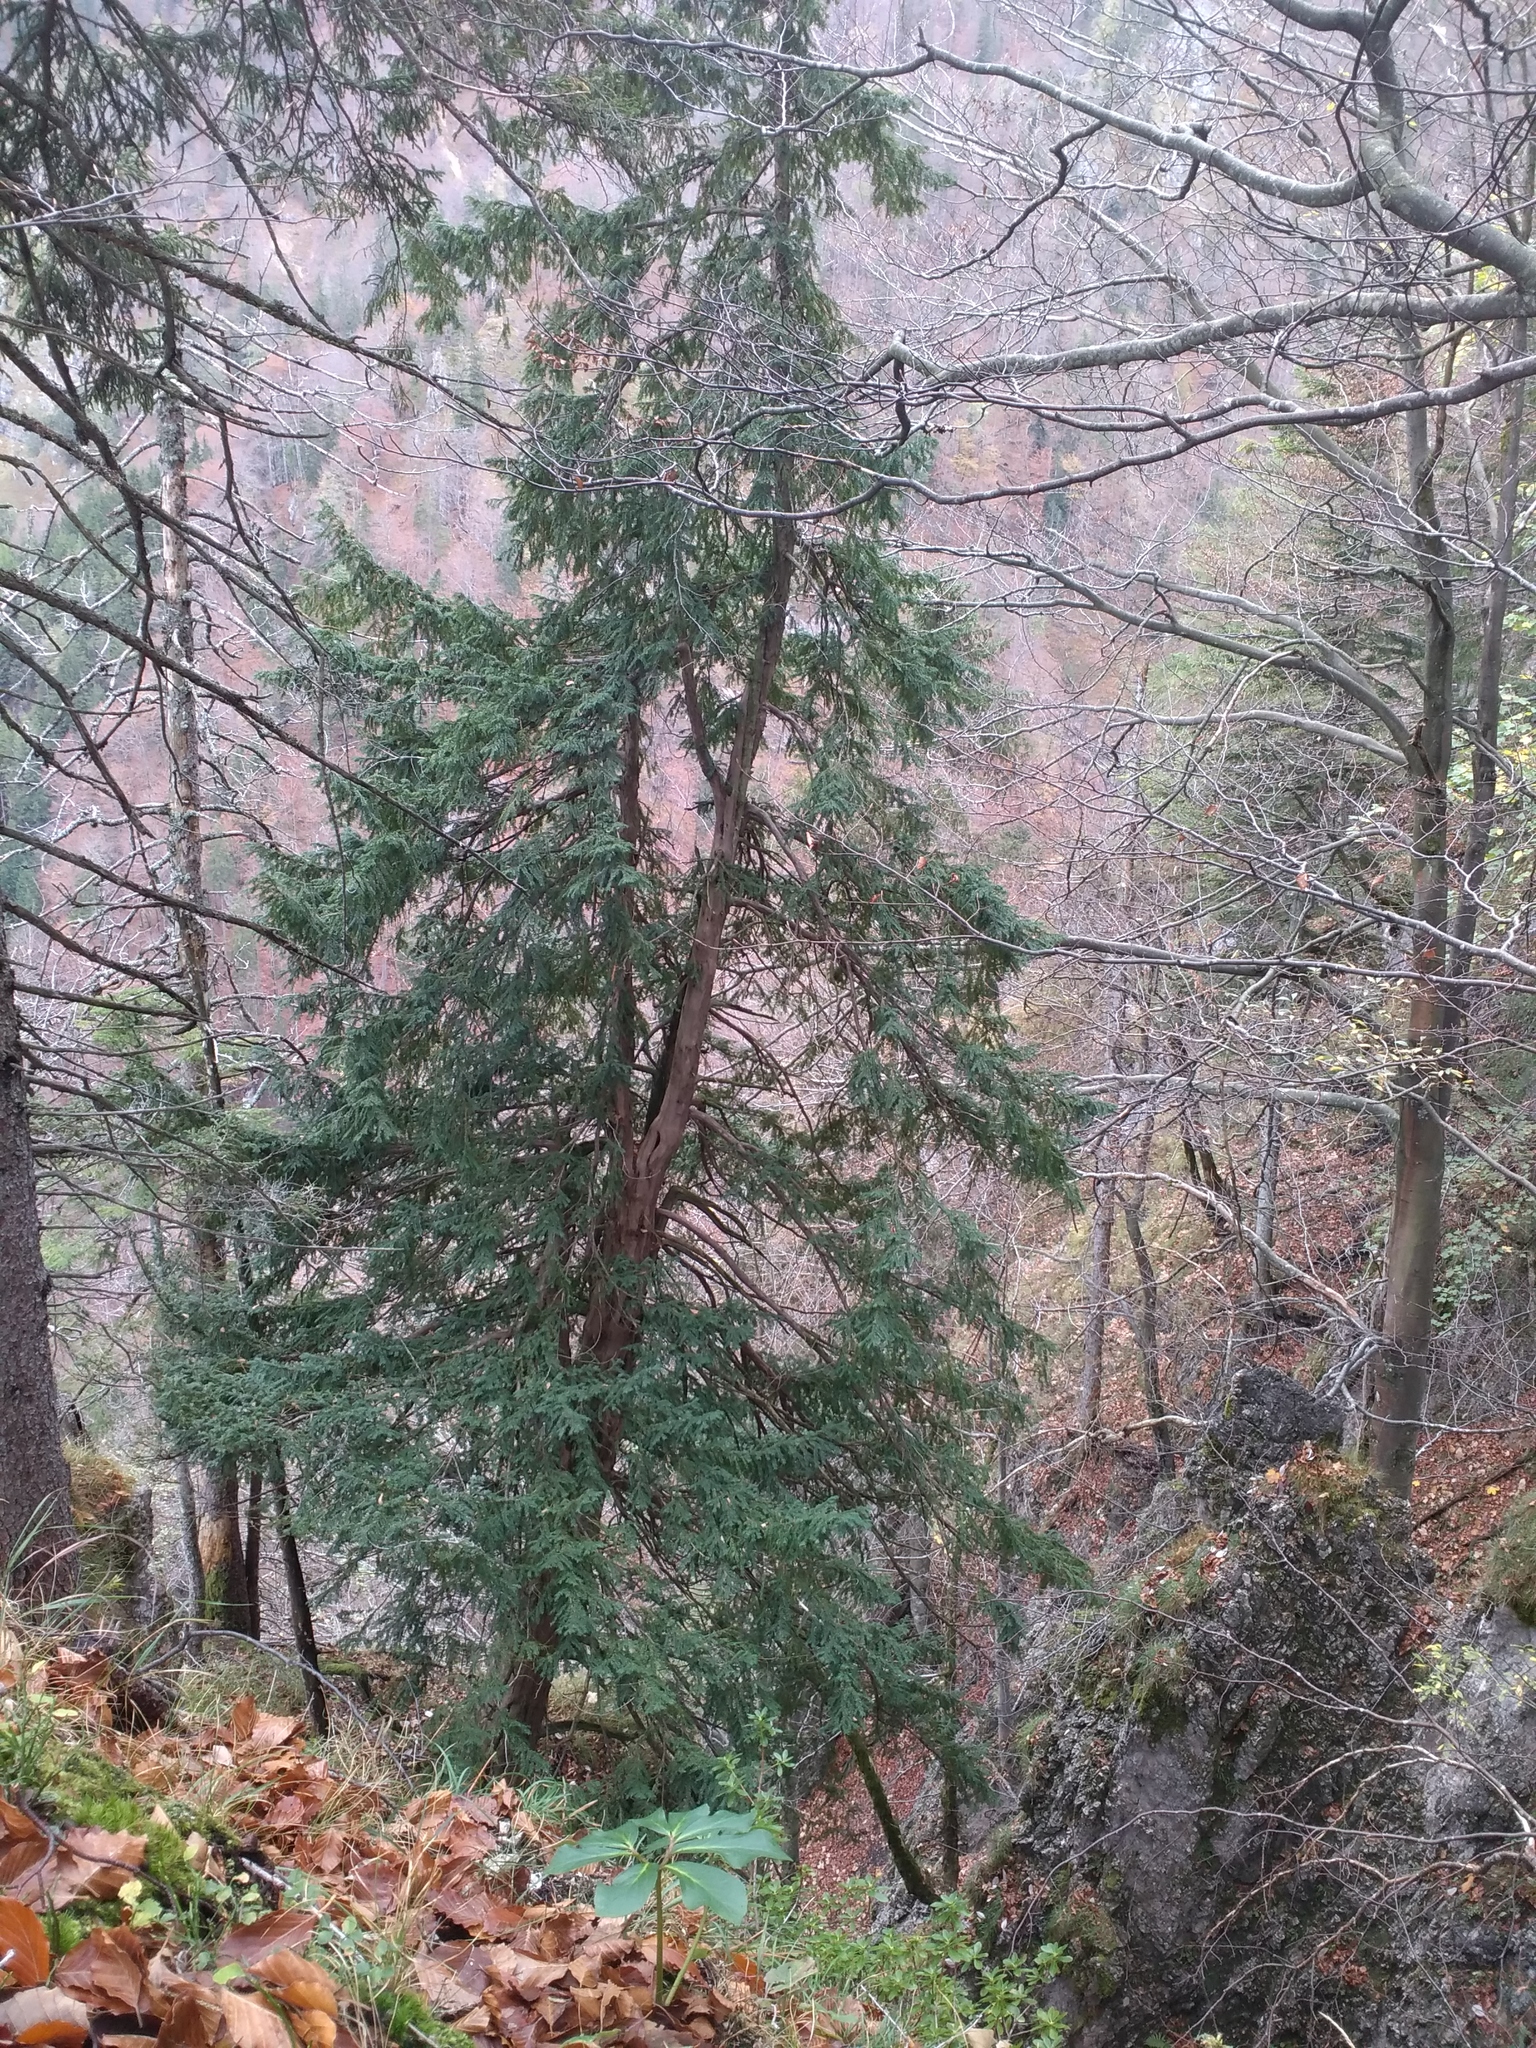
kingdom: Plantae
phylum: Tracheophyta
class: Pinopsida
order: Pinales
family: Taxaceae
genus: Taxus
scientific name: Taxus baccata
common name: Yew
